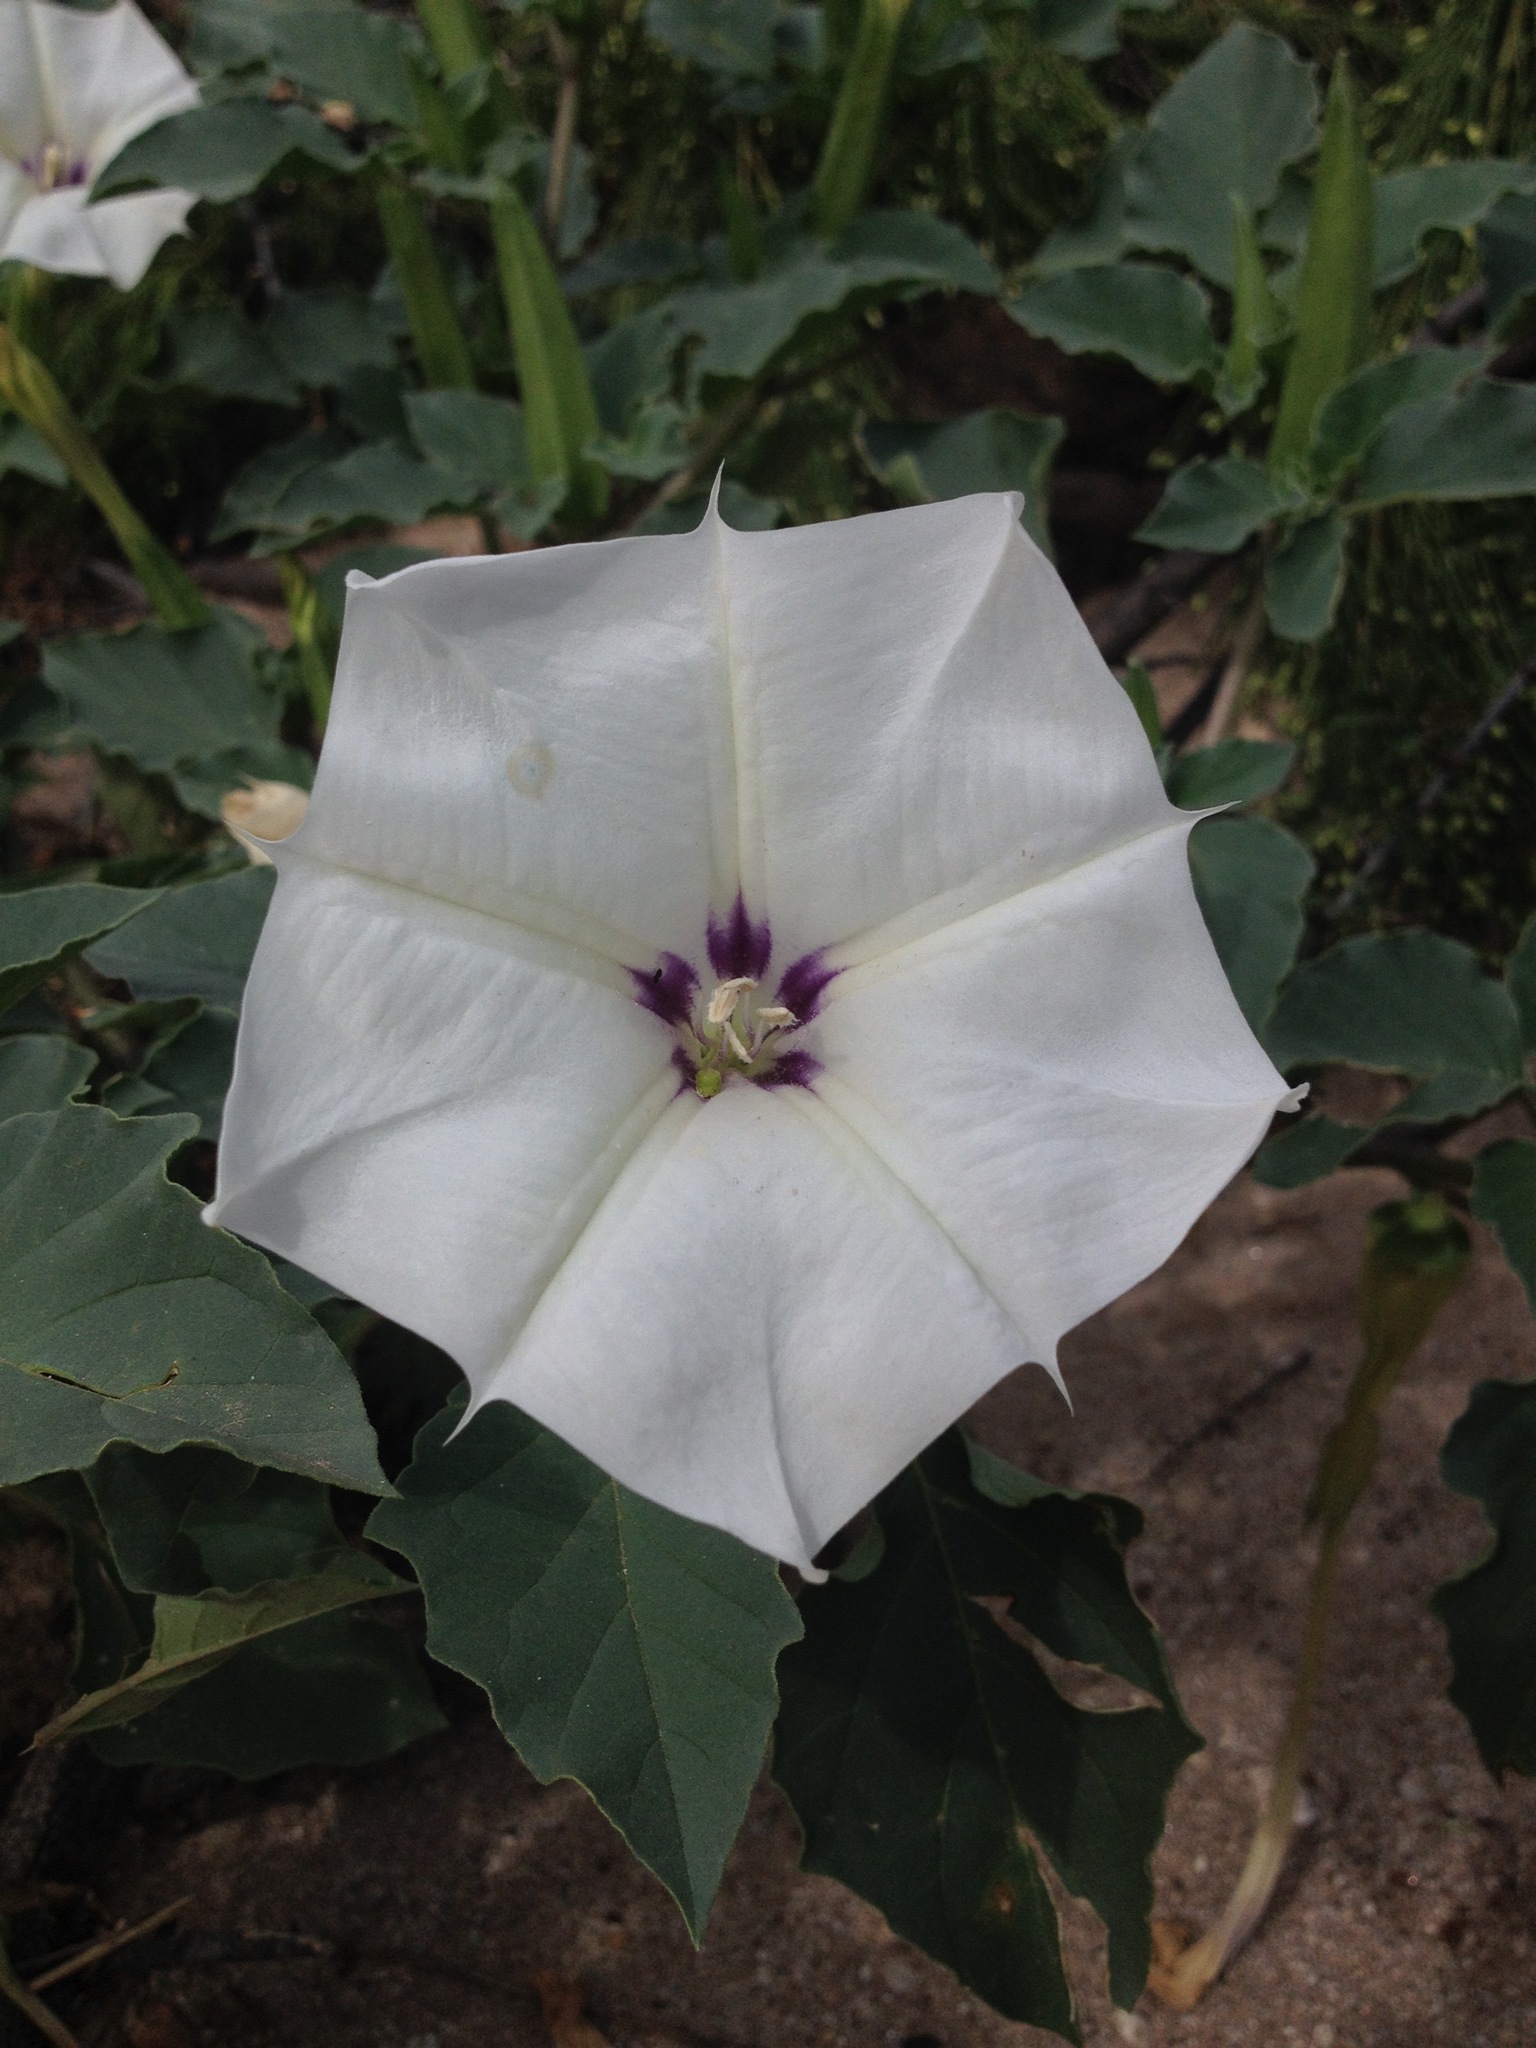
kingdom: Plantae
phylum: Tracheophyta
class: Magnoliopsida
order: Solanales
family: Solanaceae
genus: Datura
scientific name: Datura discolor
